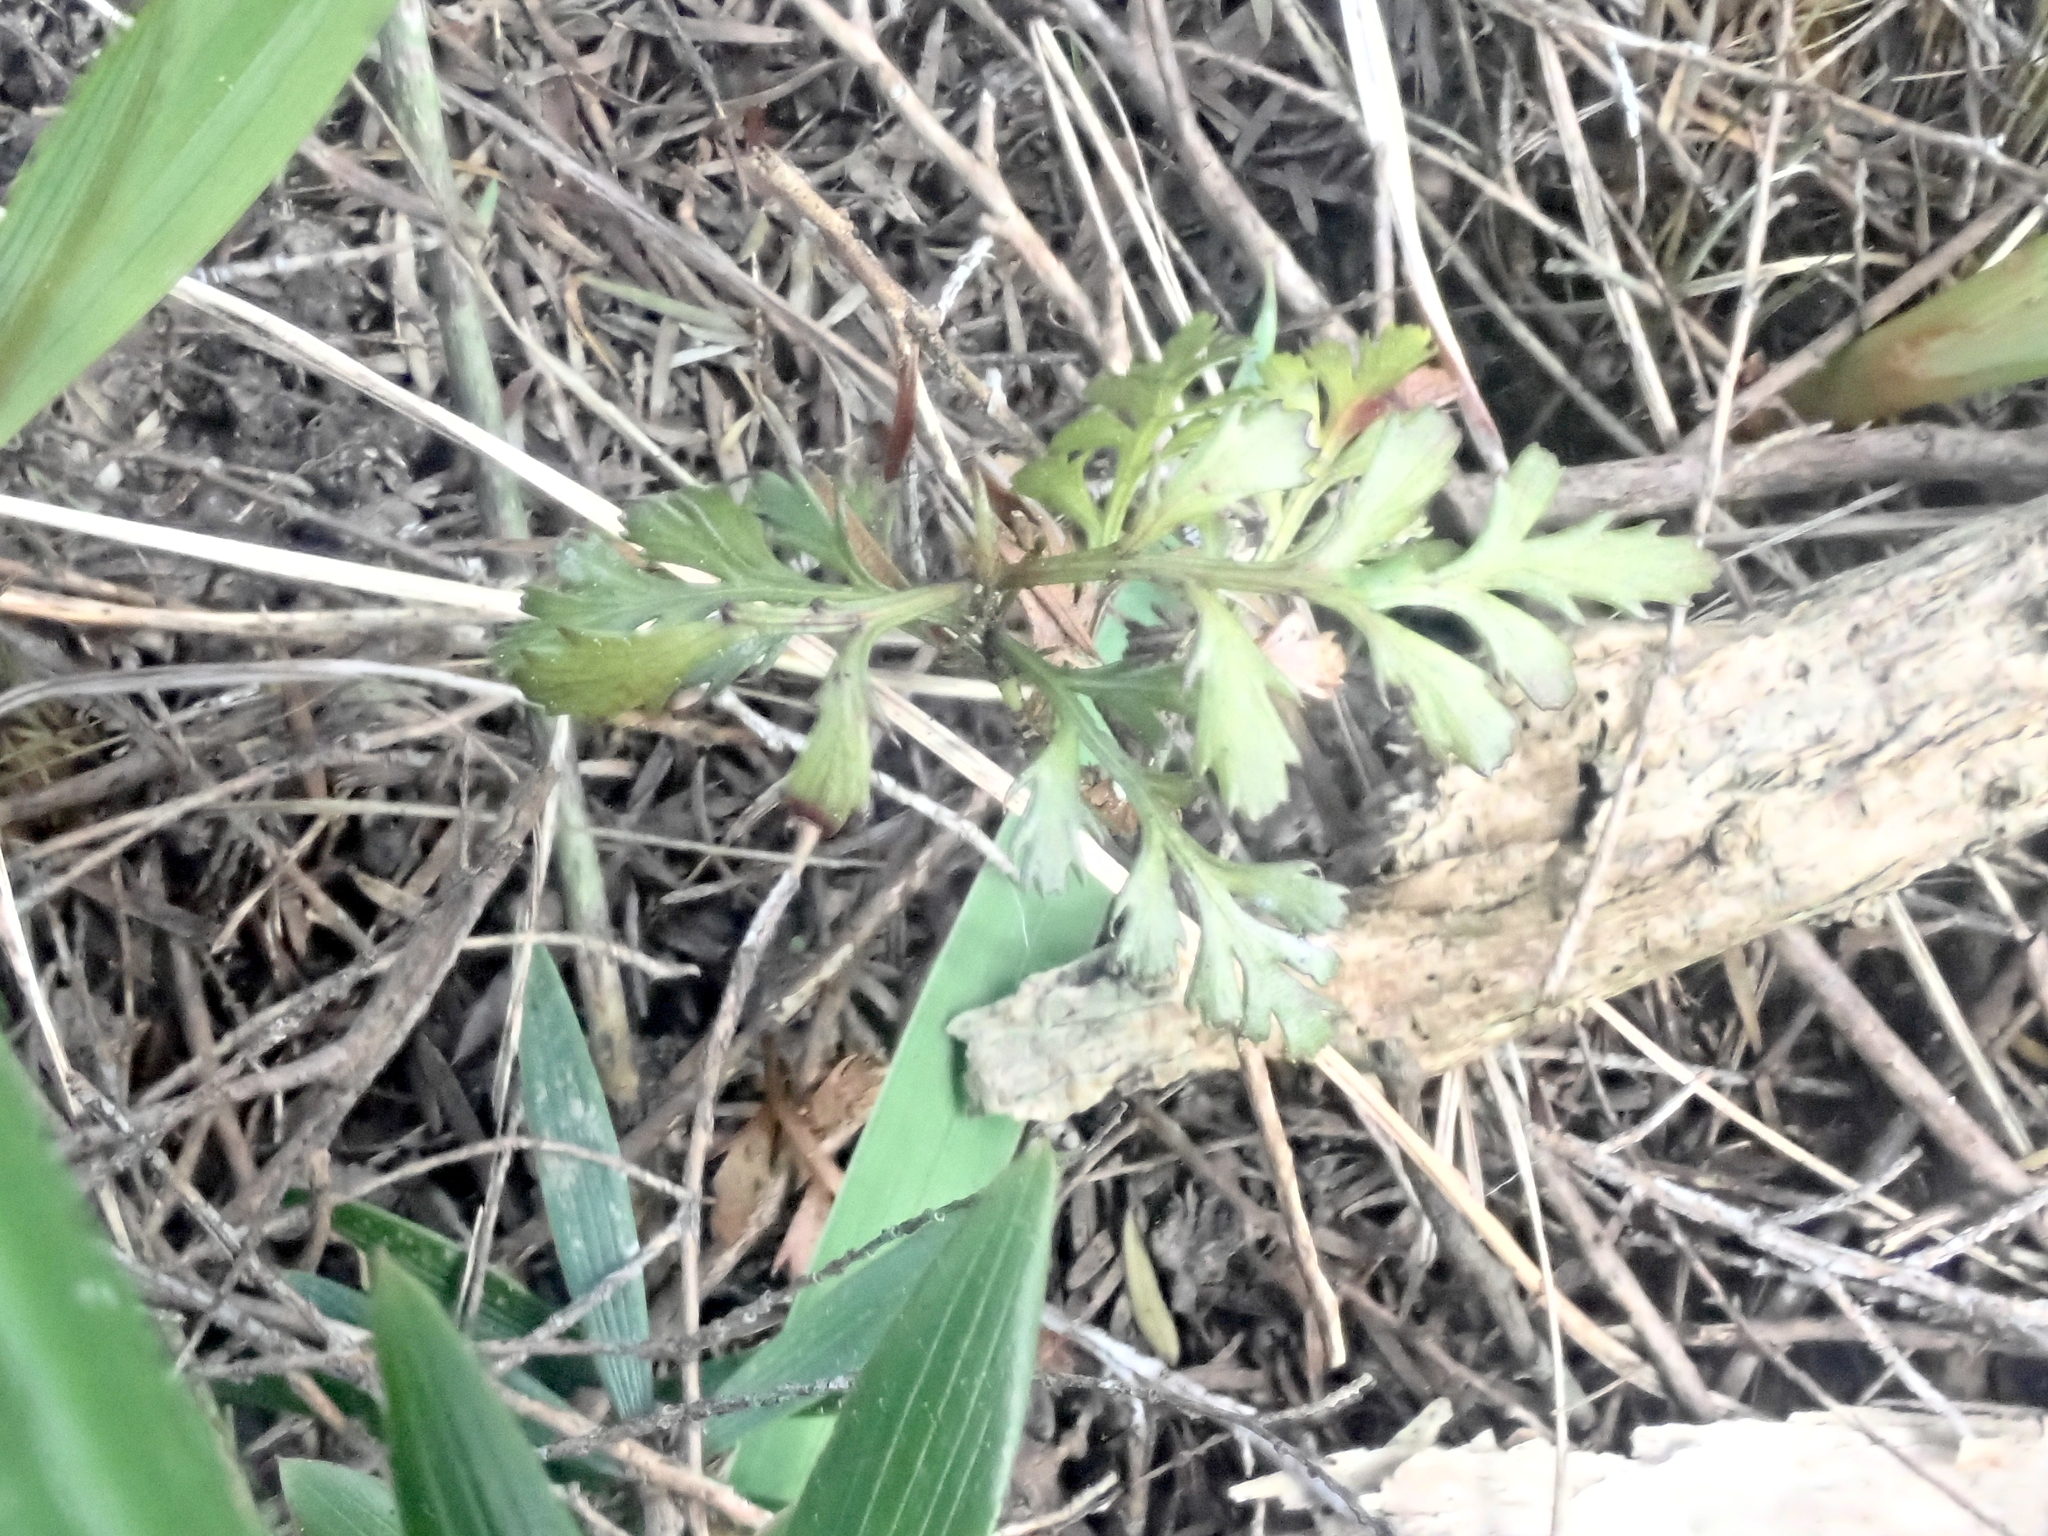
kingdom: Plantae
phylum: Tracheophyta
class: Pinopsida
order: Pinales
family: Phyllocladaceae
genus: Phyllocladus
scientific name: Phyllocladus trichomanoides
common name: Celery pine
